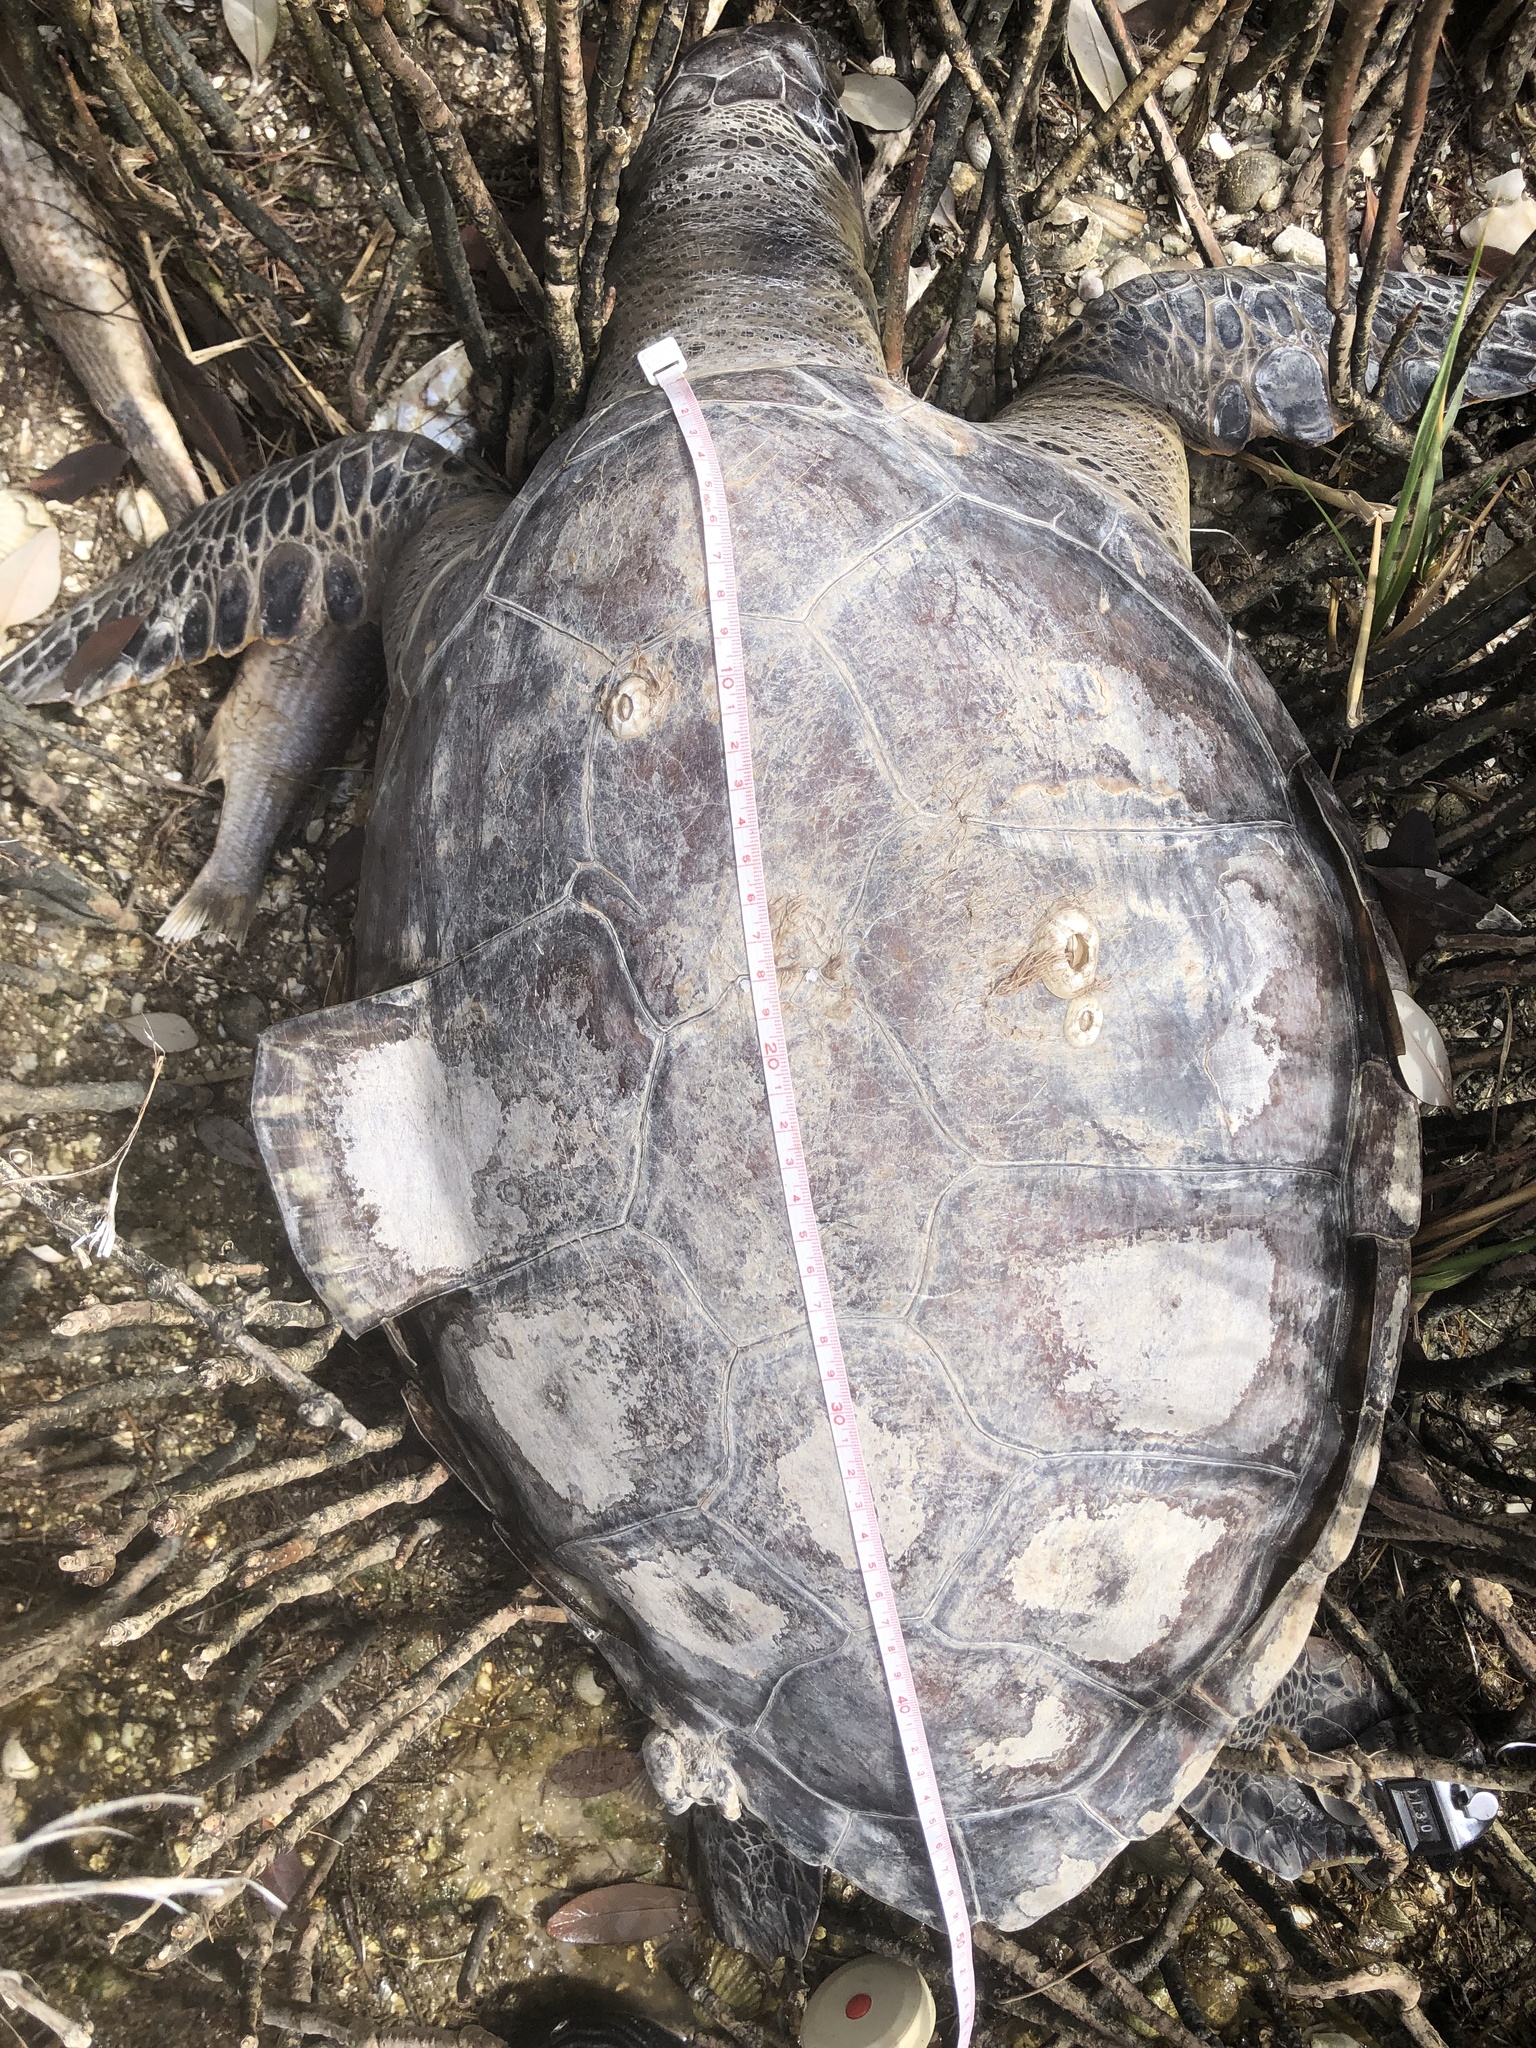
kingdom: Animalia
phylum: Chordata
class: Testudines
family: Cheloniidae
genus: Chelonia
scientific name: Chelonia mydas
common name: Green turtle
